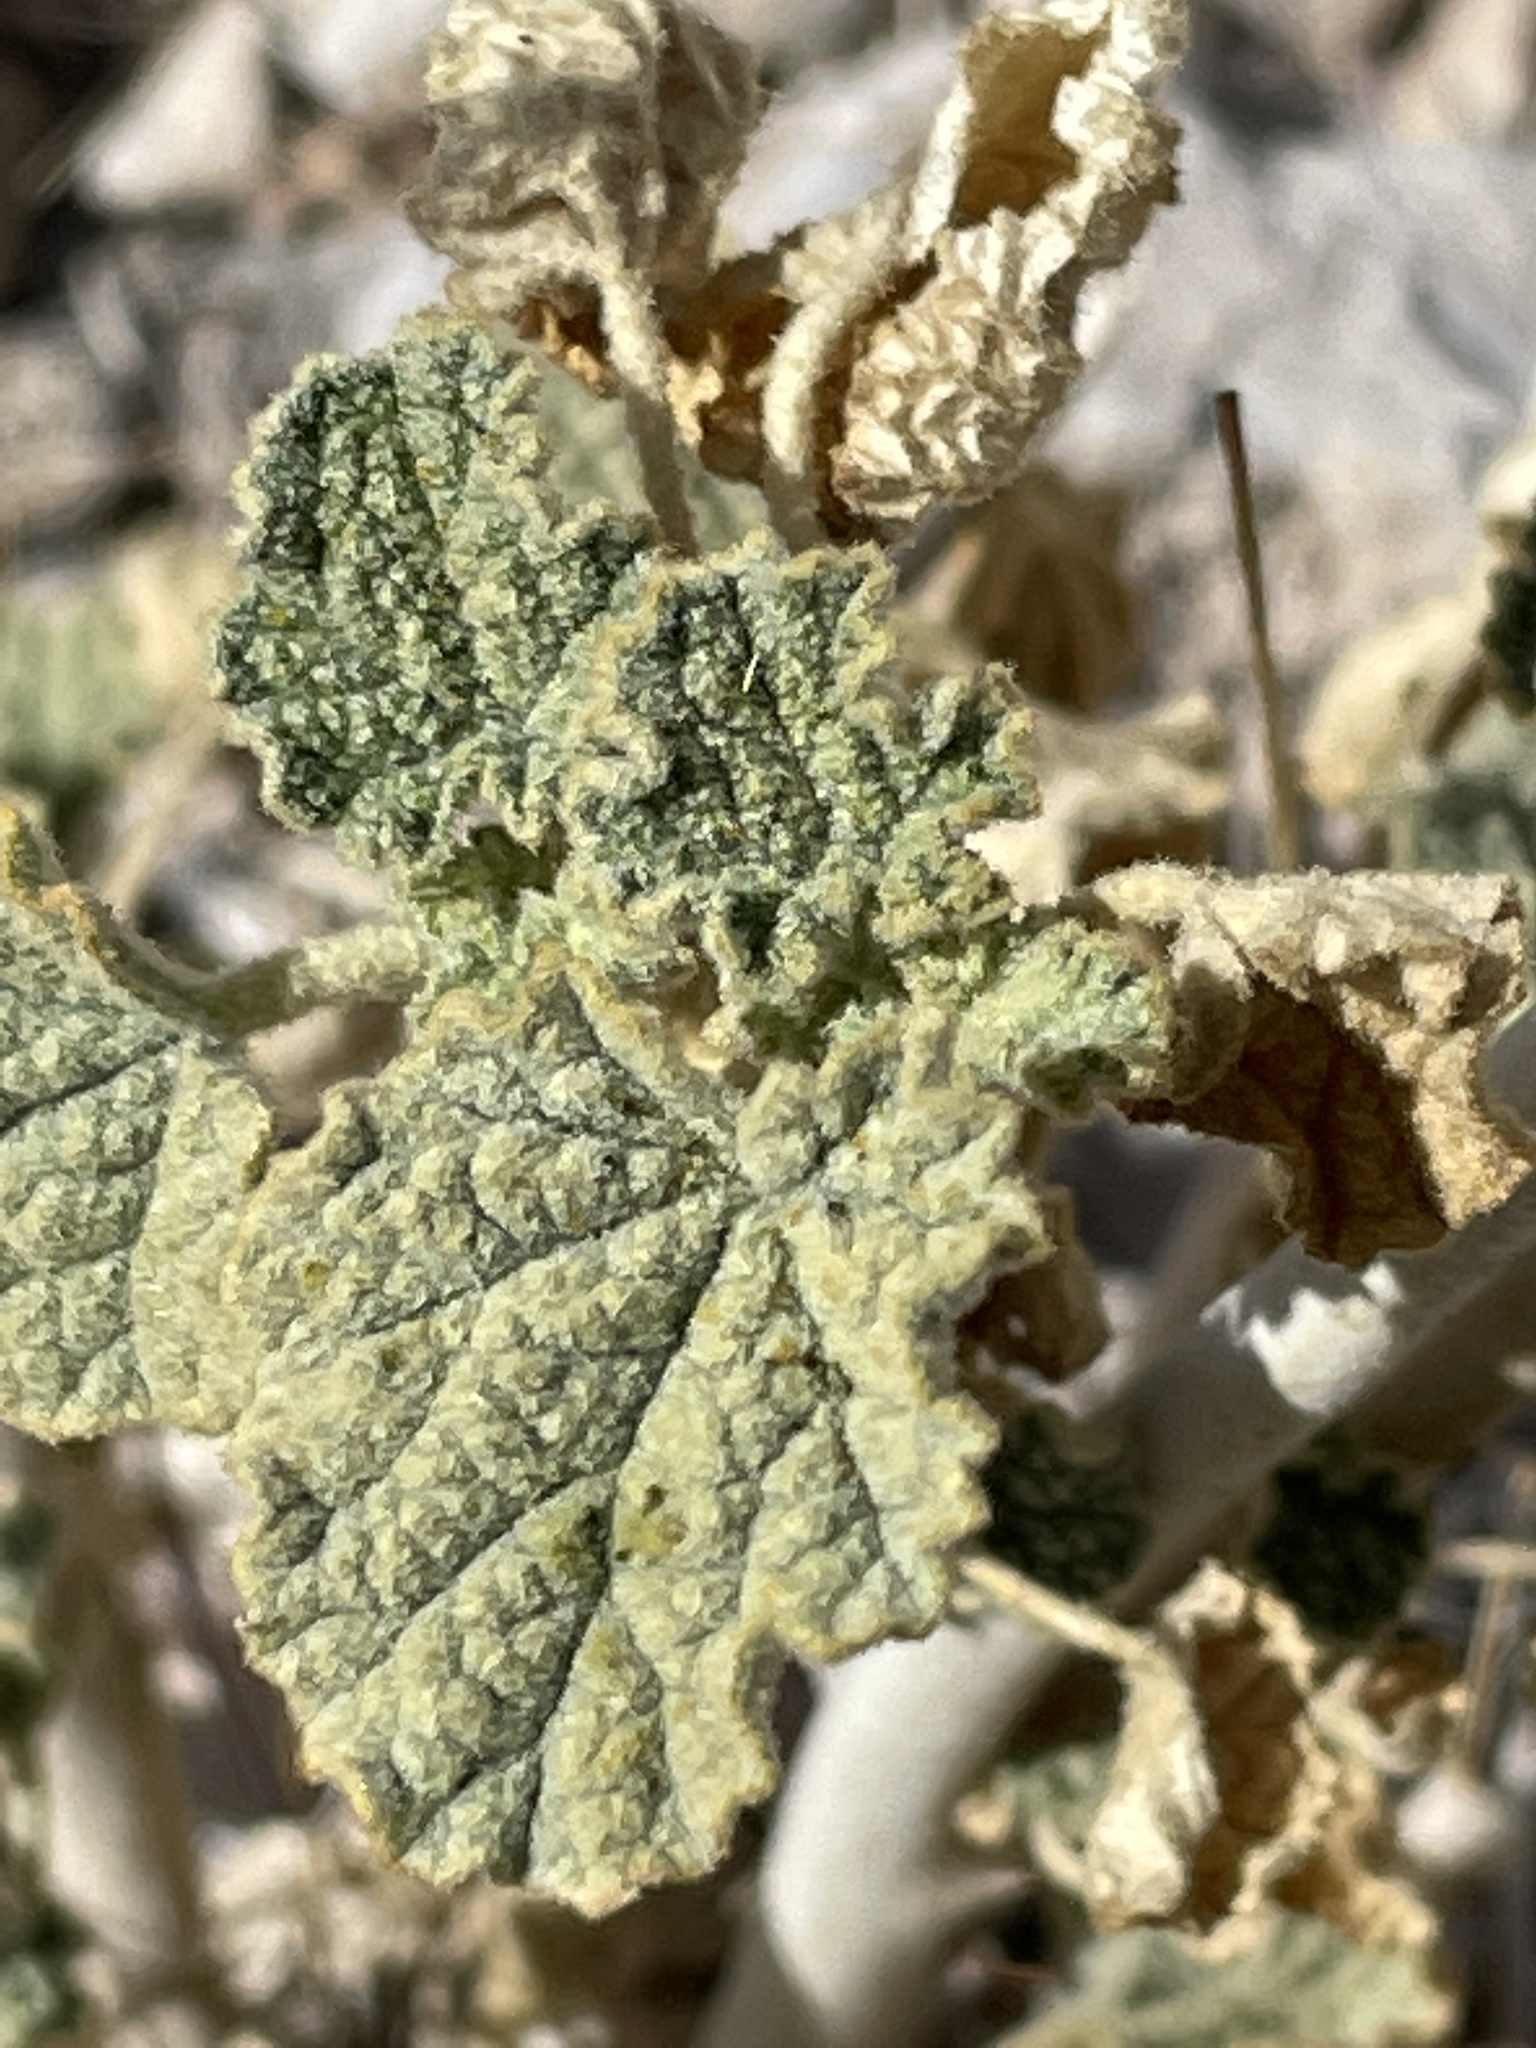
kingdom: Plantae
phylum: Tracheophyta
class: Magnoliopsida
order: Malvales
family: Malvaceae
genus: Sphaeralcea
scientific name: Sphaeralcea ambigua
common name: Apricot globe-mallow
